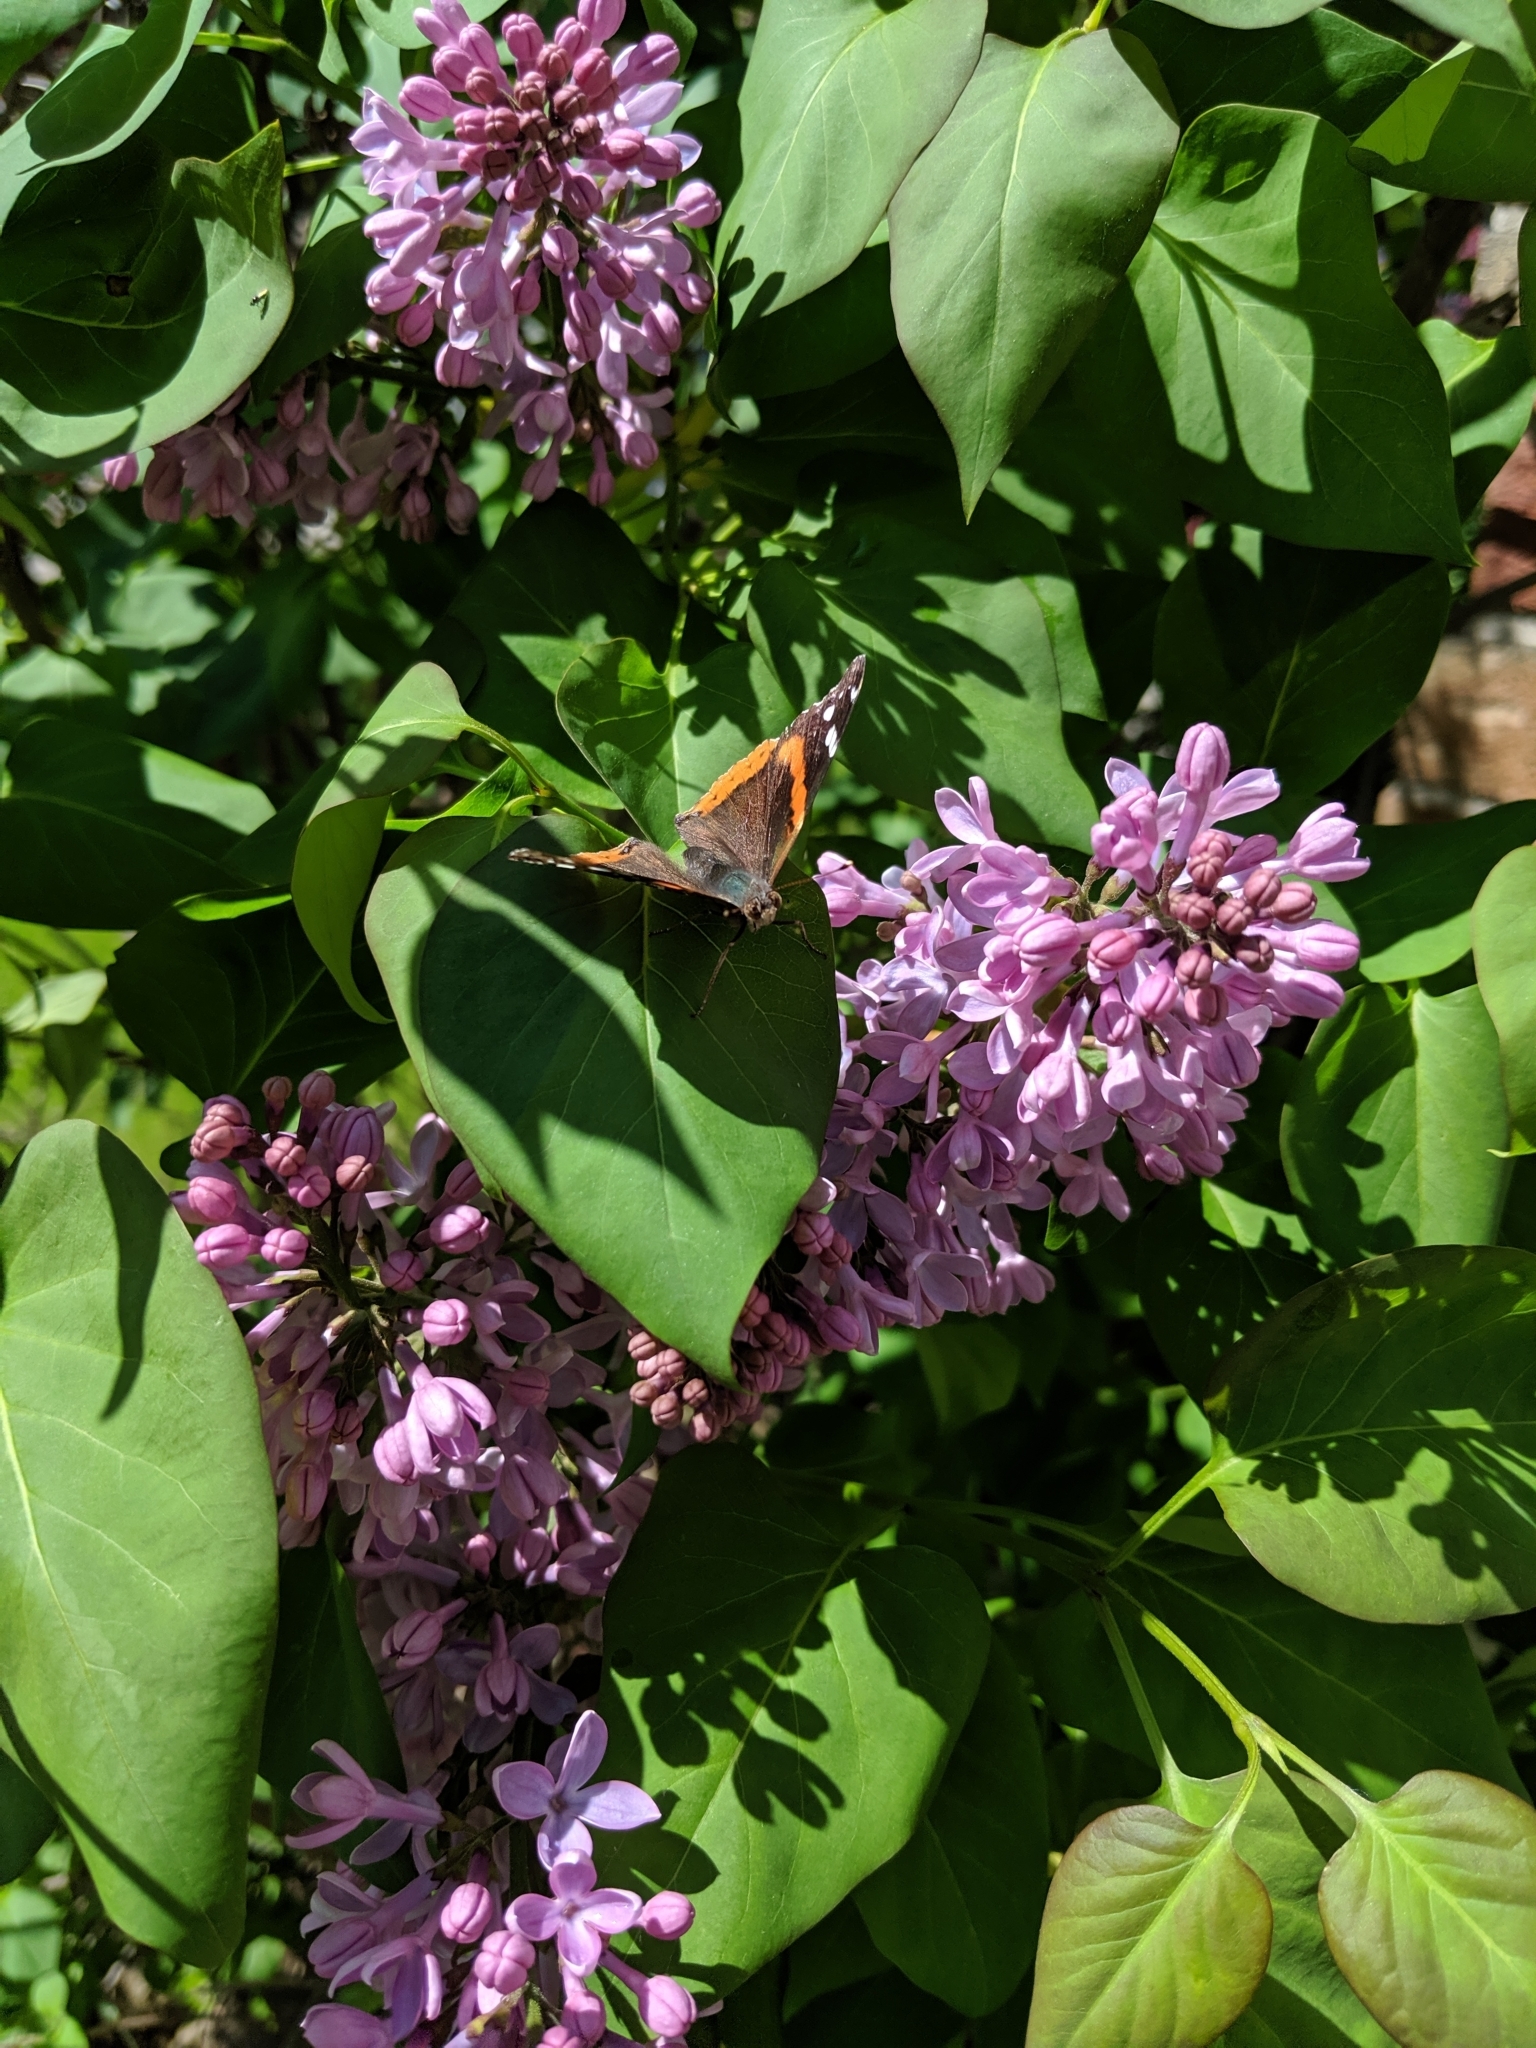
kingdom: Animalia
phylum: Arthropoda
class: Insecta
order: Lepidoptera
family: Nymphalidae
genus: Vanessa
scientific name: Vanessa atalanta
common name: Red admiral
